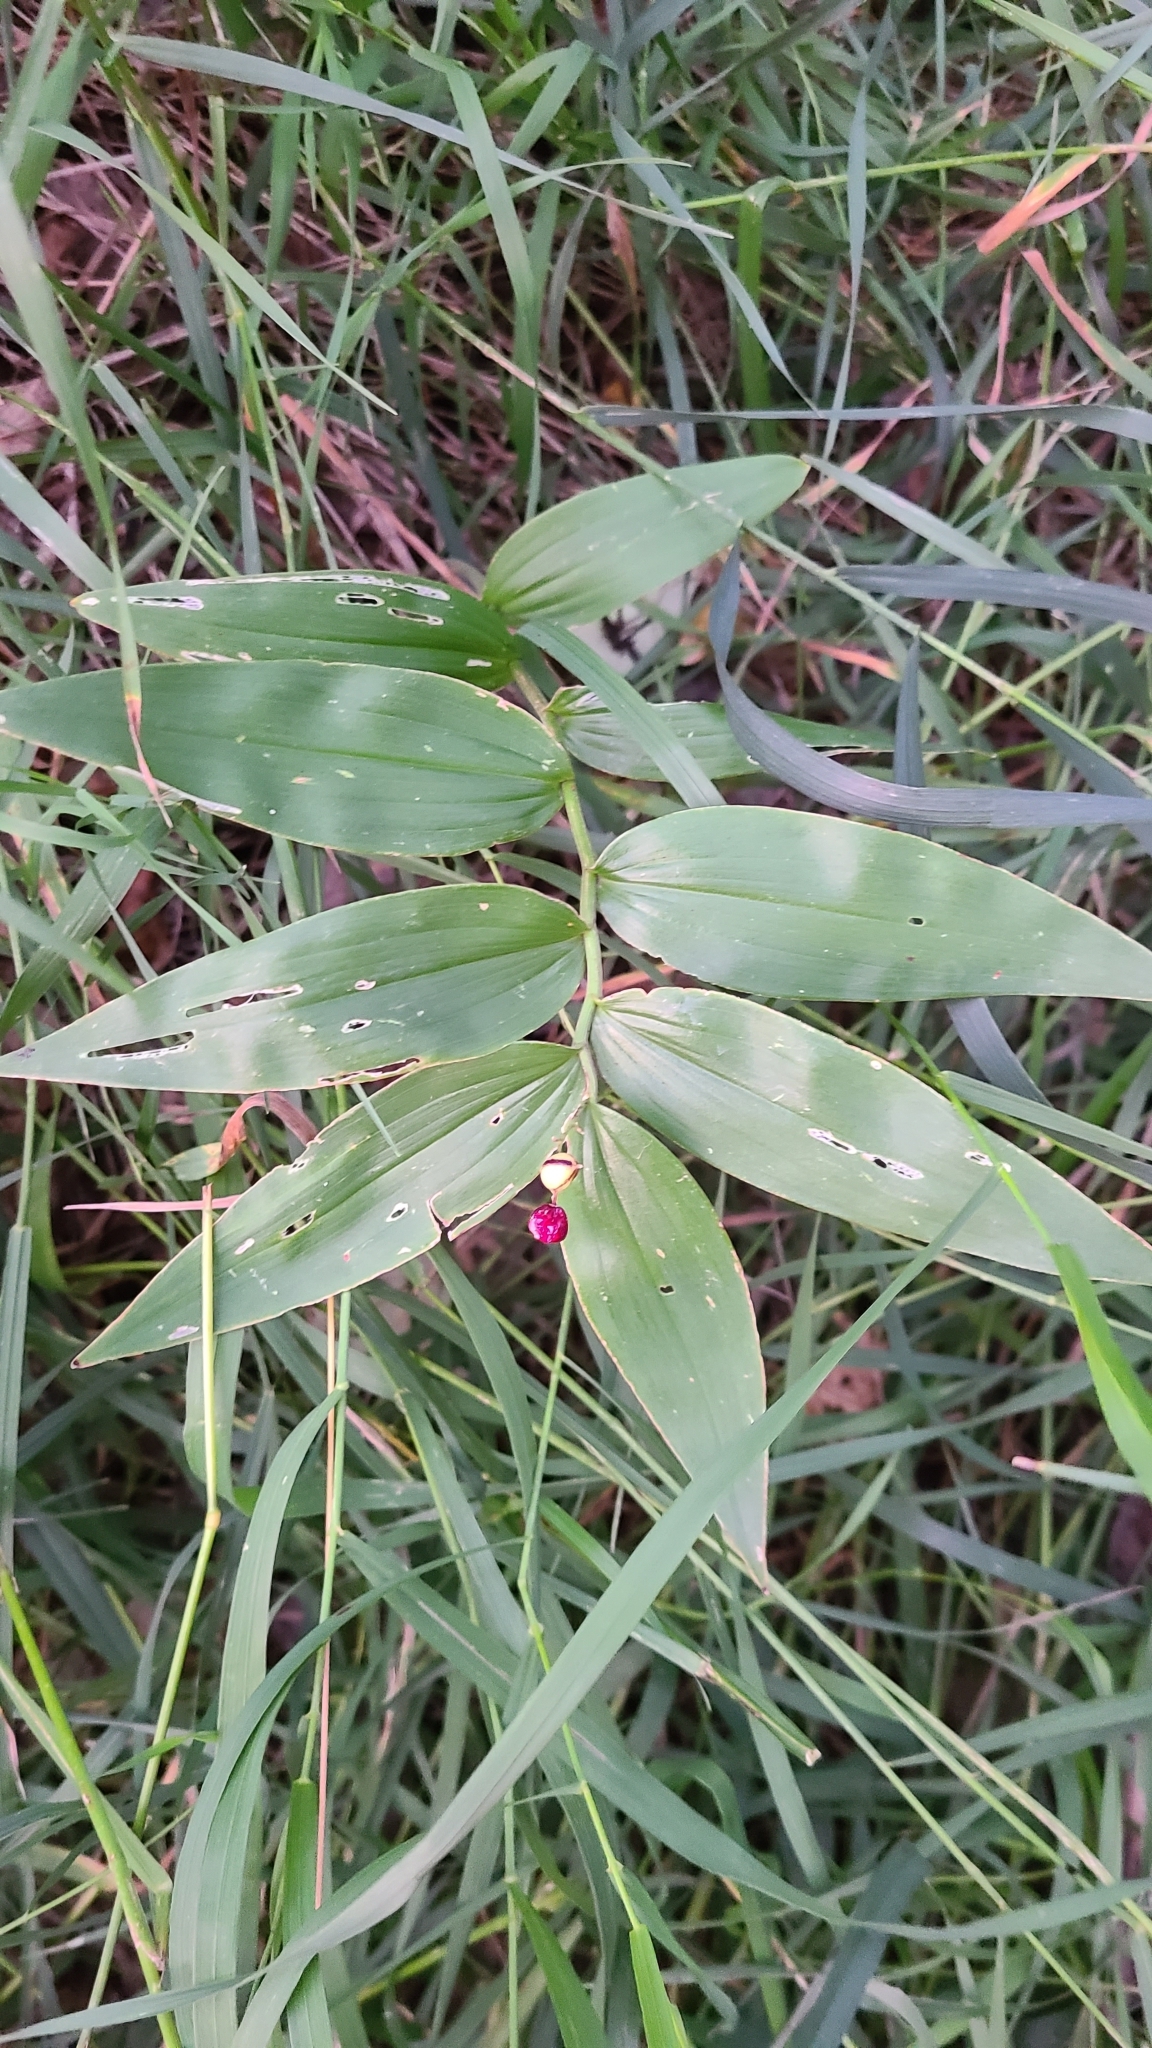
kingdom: Plantae
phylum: Tracheophyta
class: Liliopsida
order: Asparagales
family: Asparagaceae
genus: Maianthemum
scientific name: Maianthemum stellatum
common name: Little false solomon's seal
